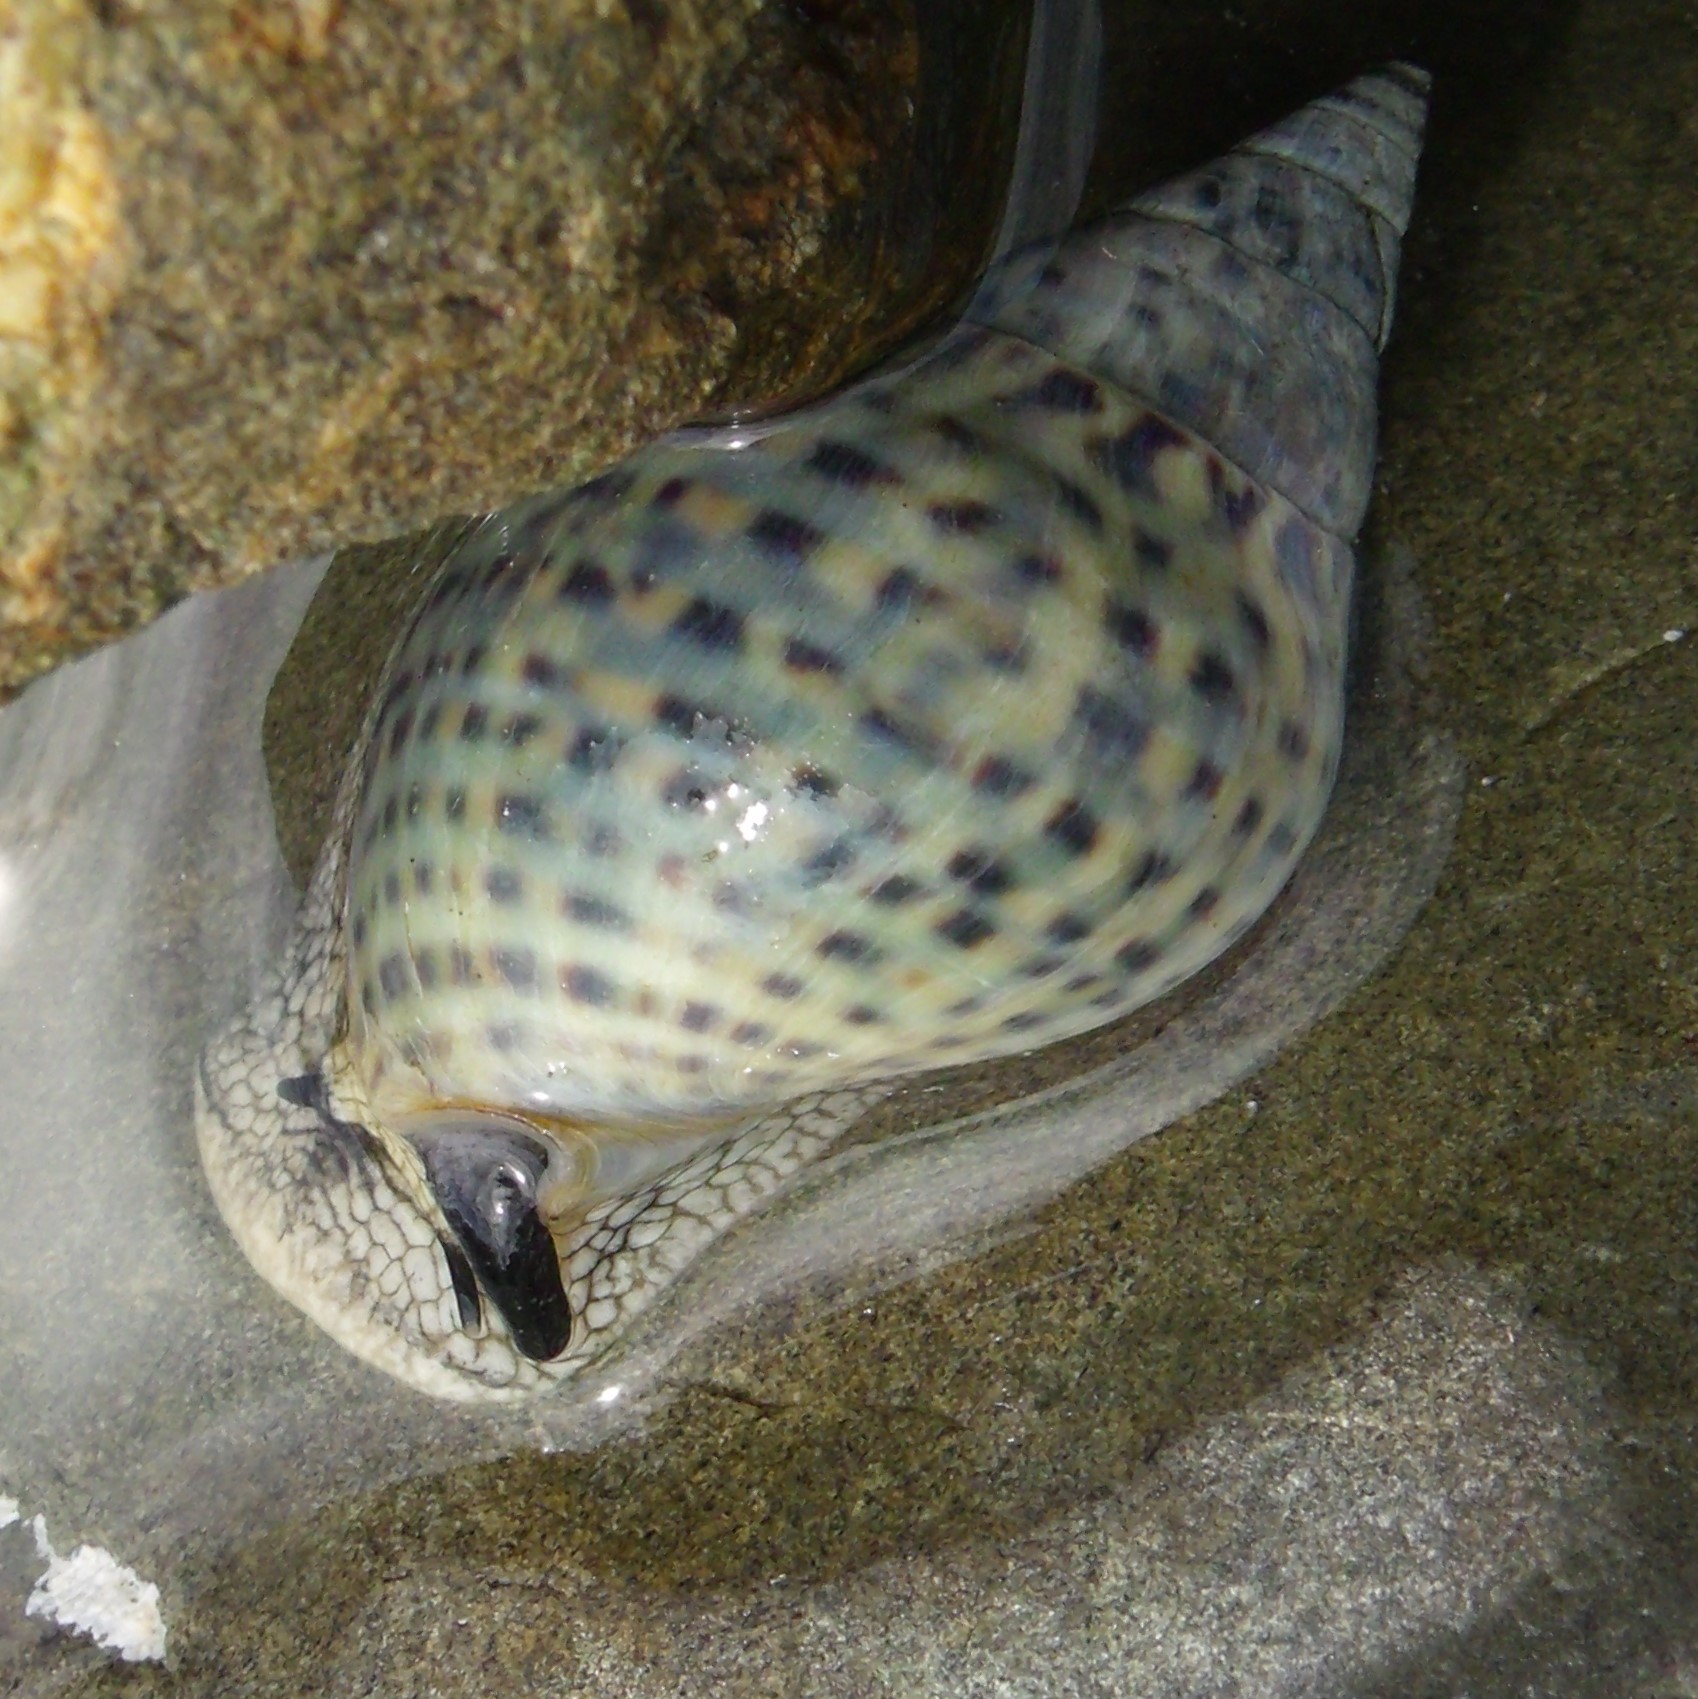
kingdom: Animalia
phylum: Mollusca
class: Gastropoda
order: Neogastropoda
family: Cominellidae
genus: Cominella
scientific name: Cominella maculosa
